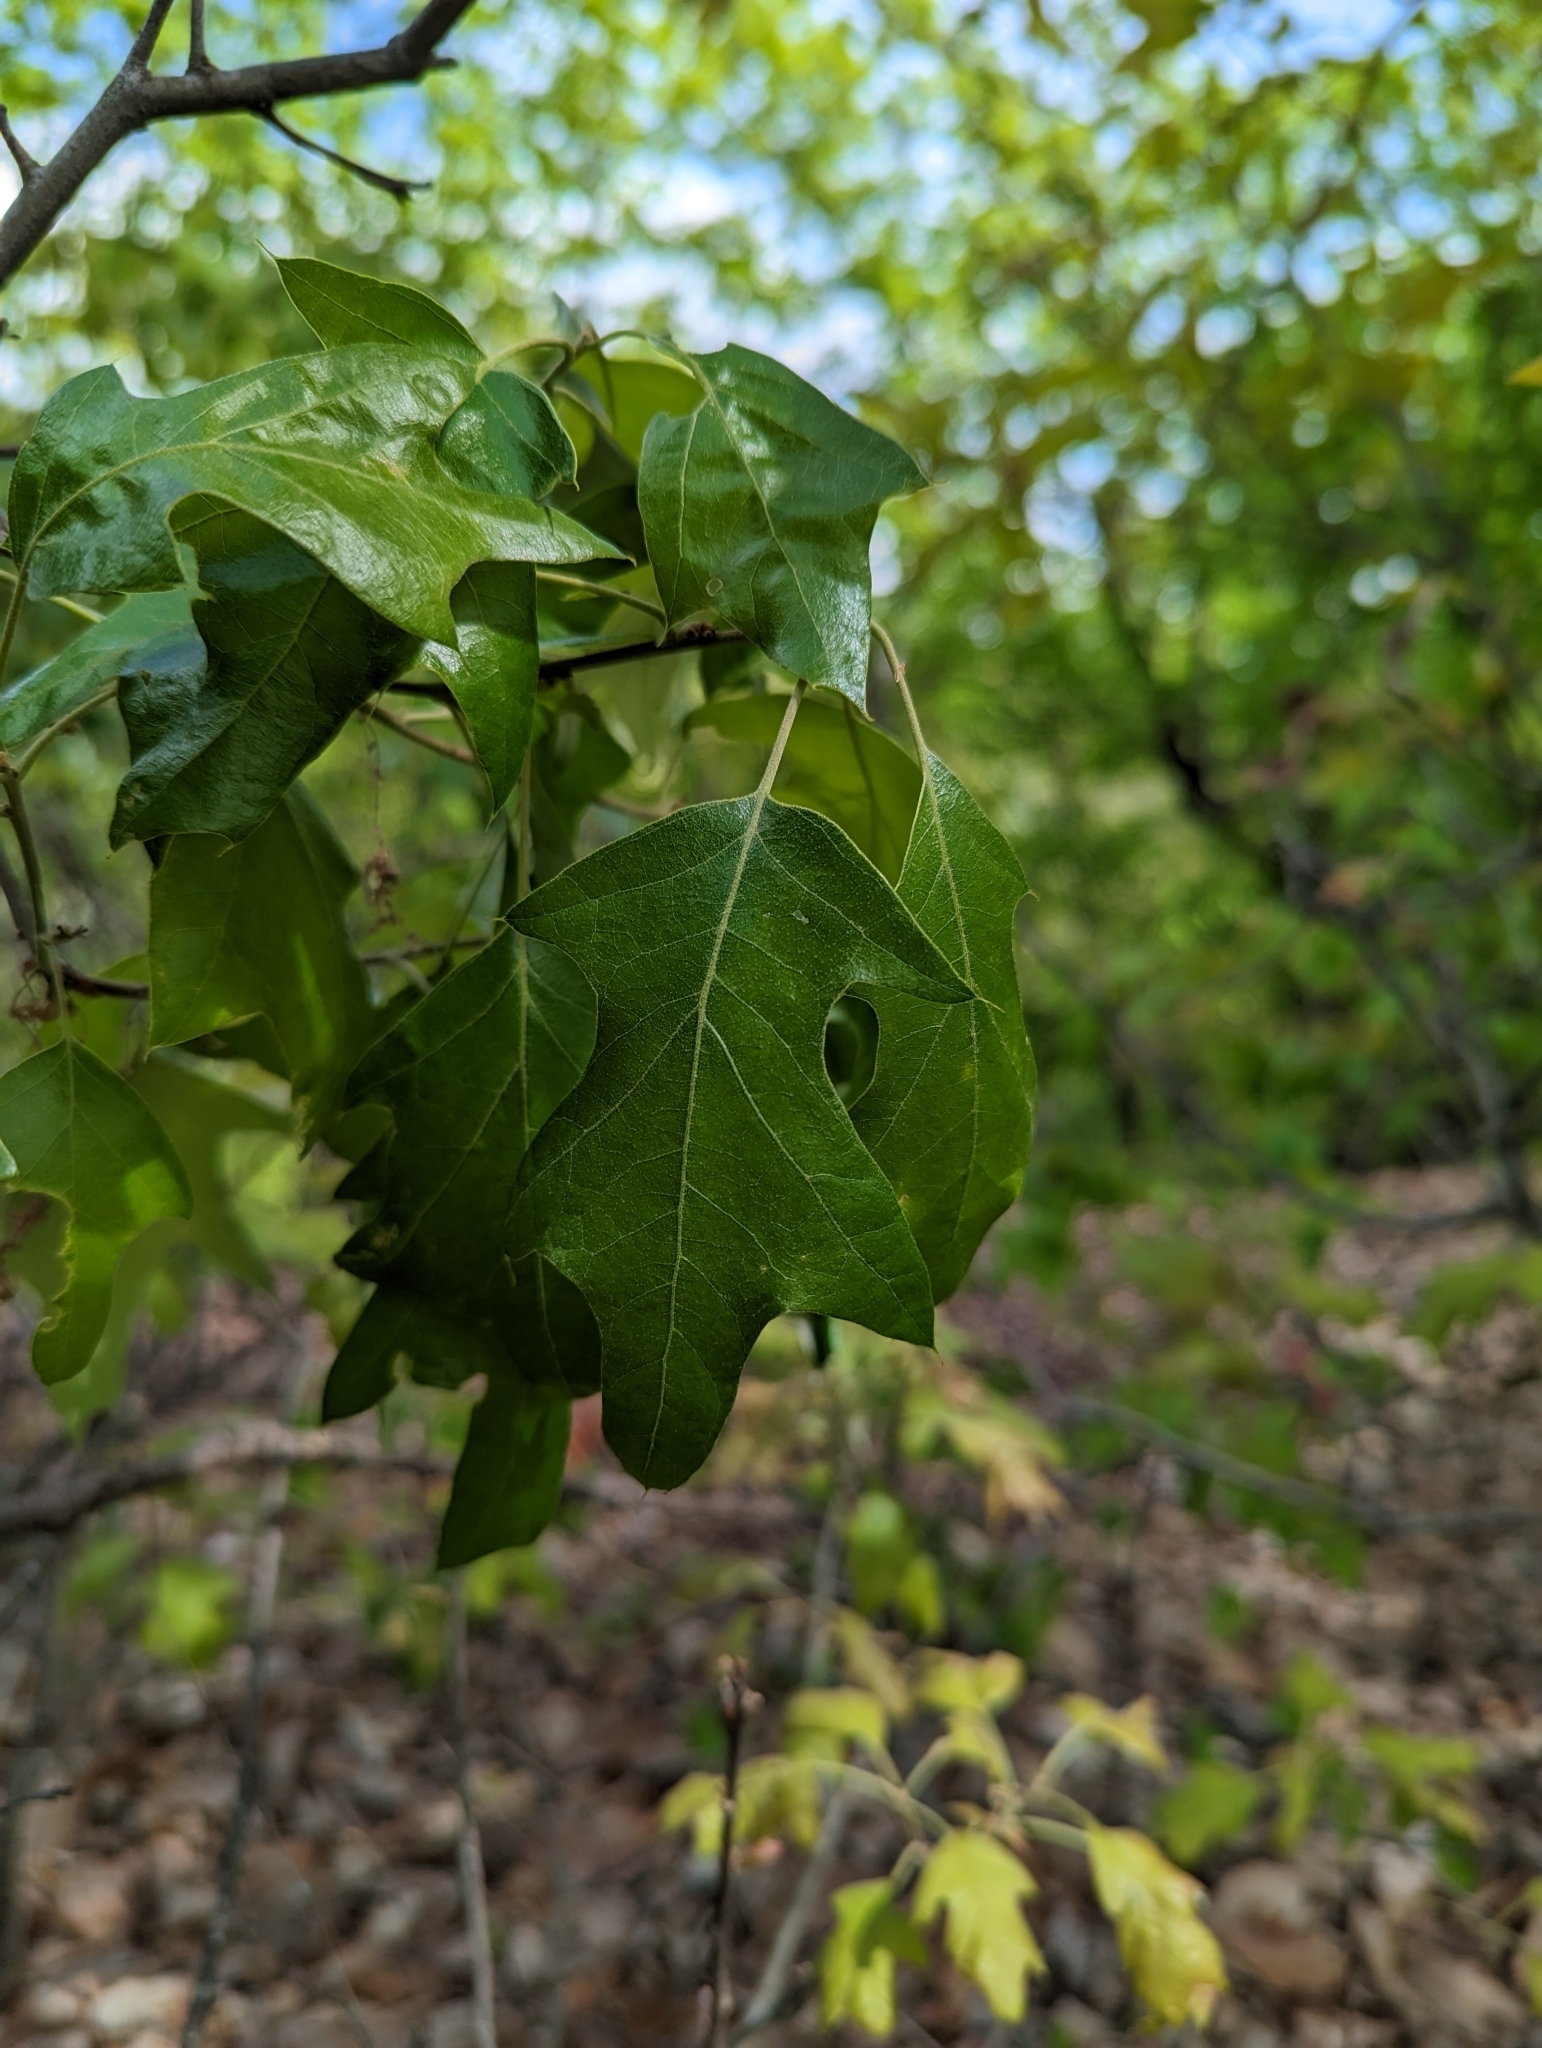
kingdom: Plantae
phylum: Tracheophyta
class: Magnoliopsida
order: Fagales
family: Fagaceae
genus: Quercus
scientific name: Quercus ilicifolia
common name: Bear oak
